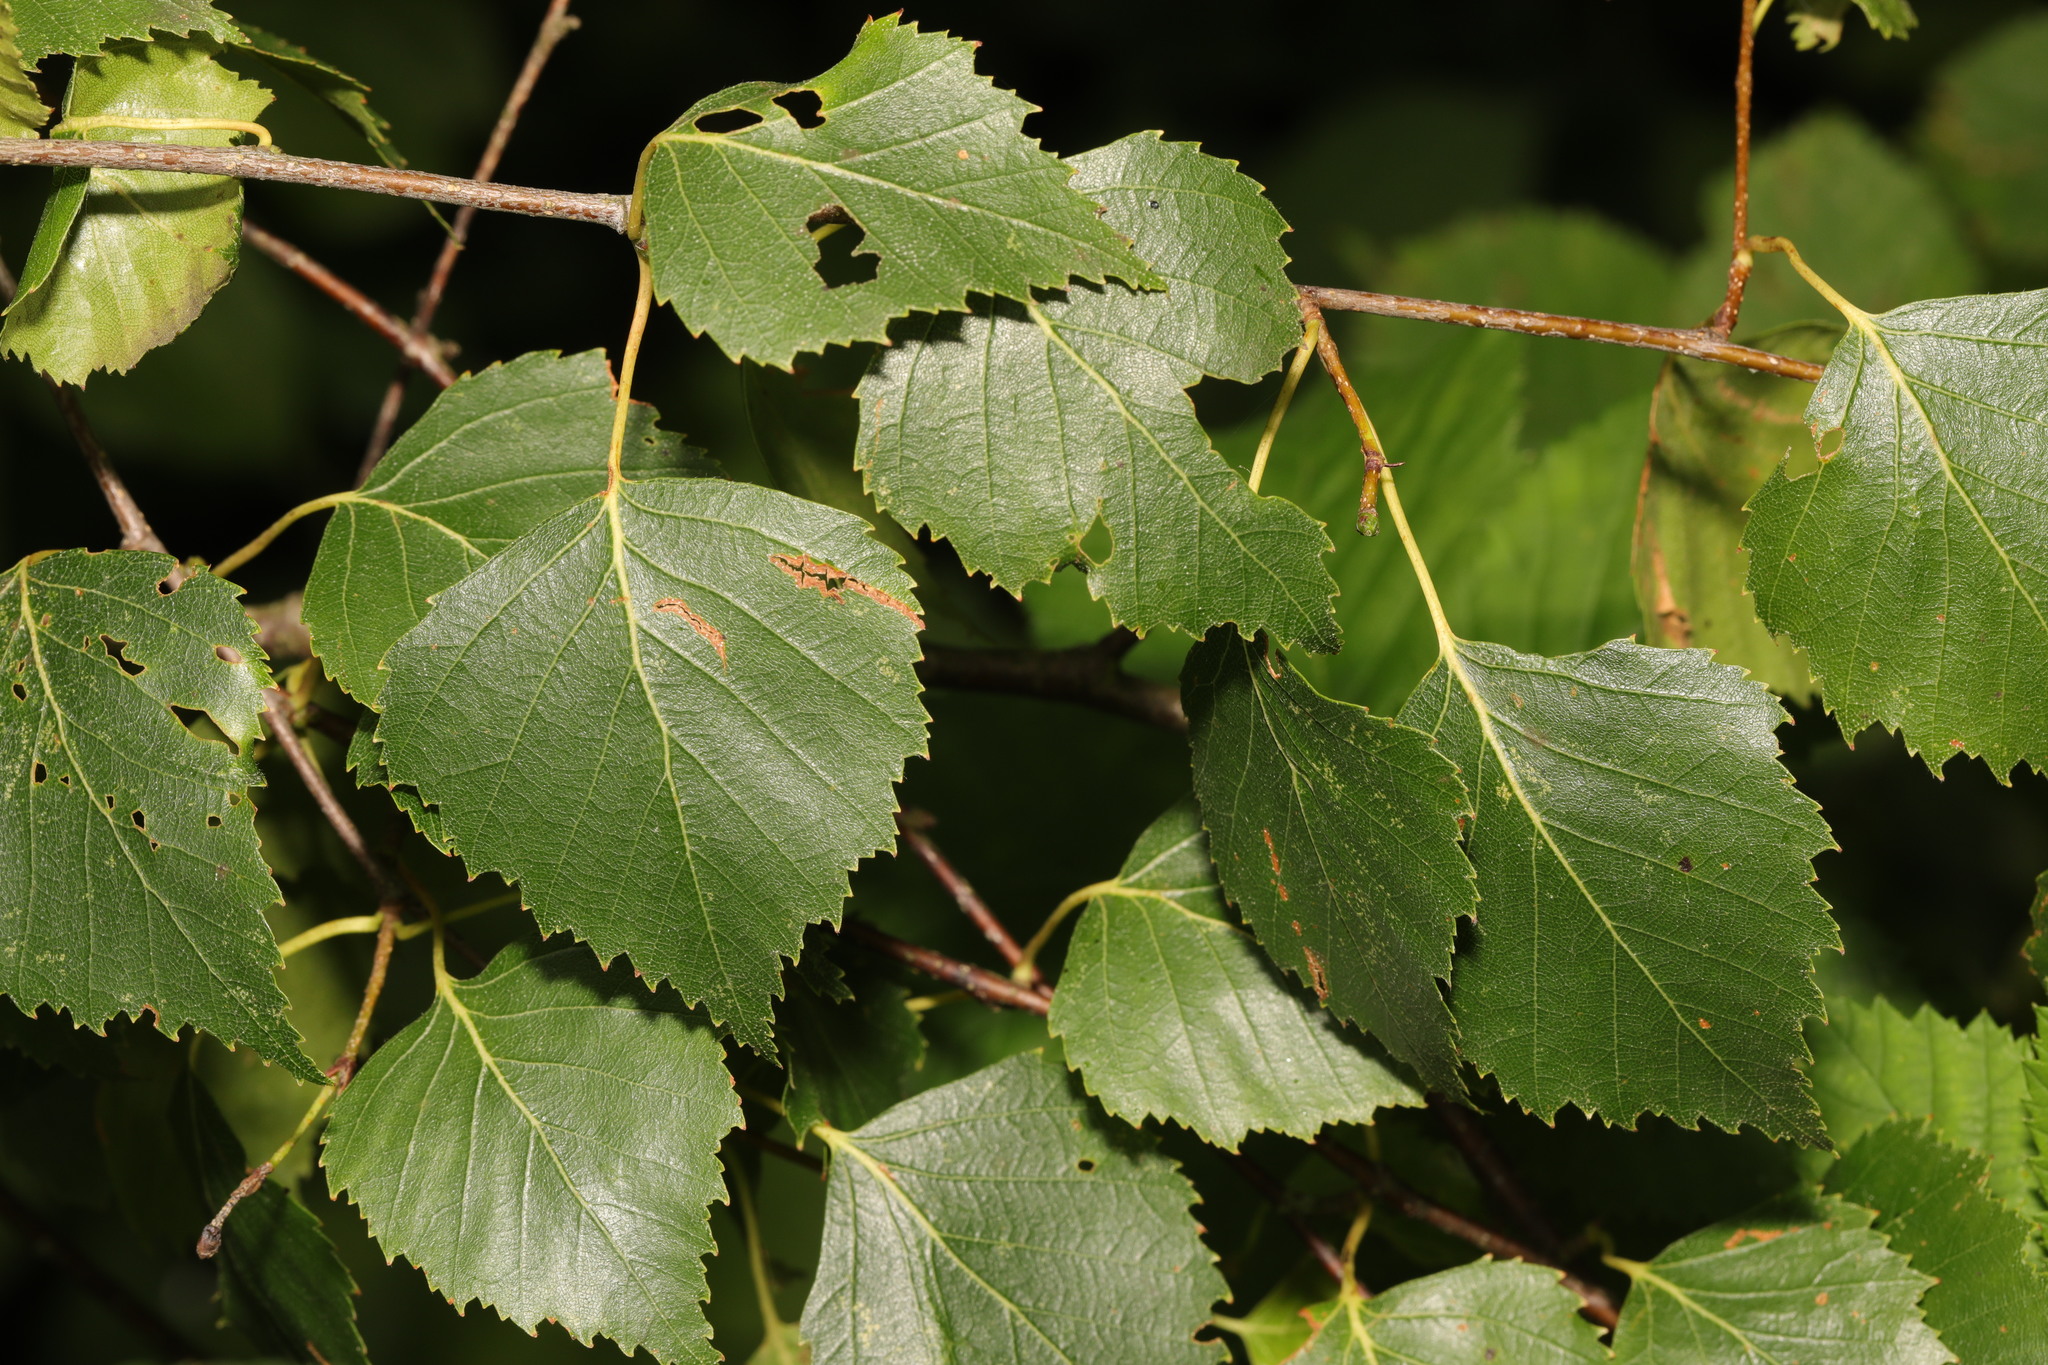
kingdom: Plantae
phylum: Tracheophyta
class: Magnoliopsida
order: Fagales
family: Betulaceae
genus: Betula
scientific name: Betula pendula
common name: Silver birch
